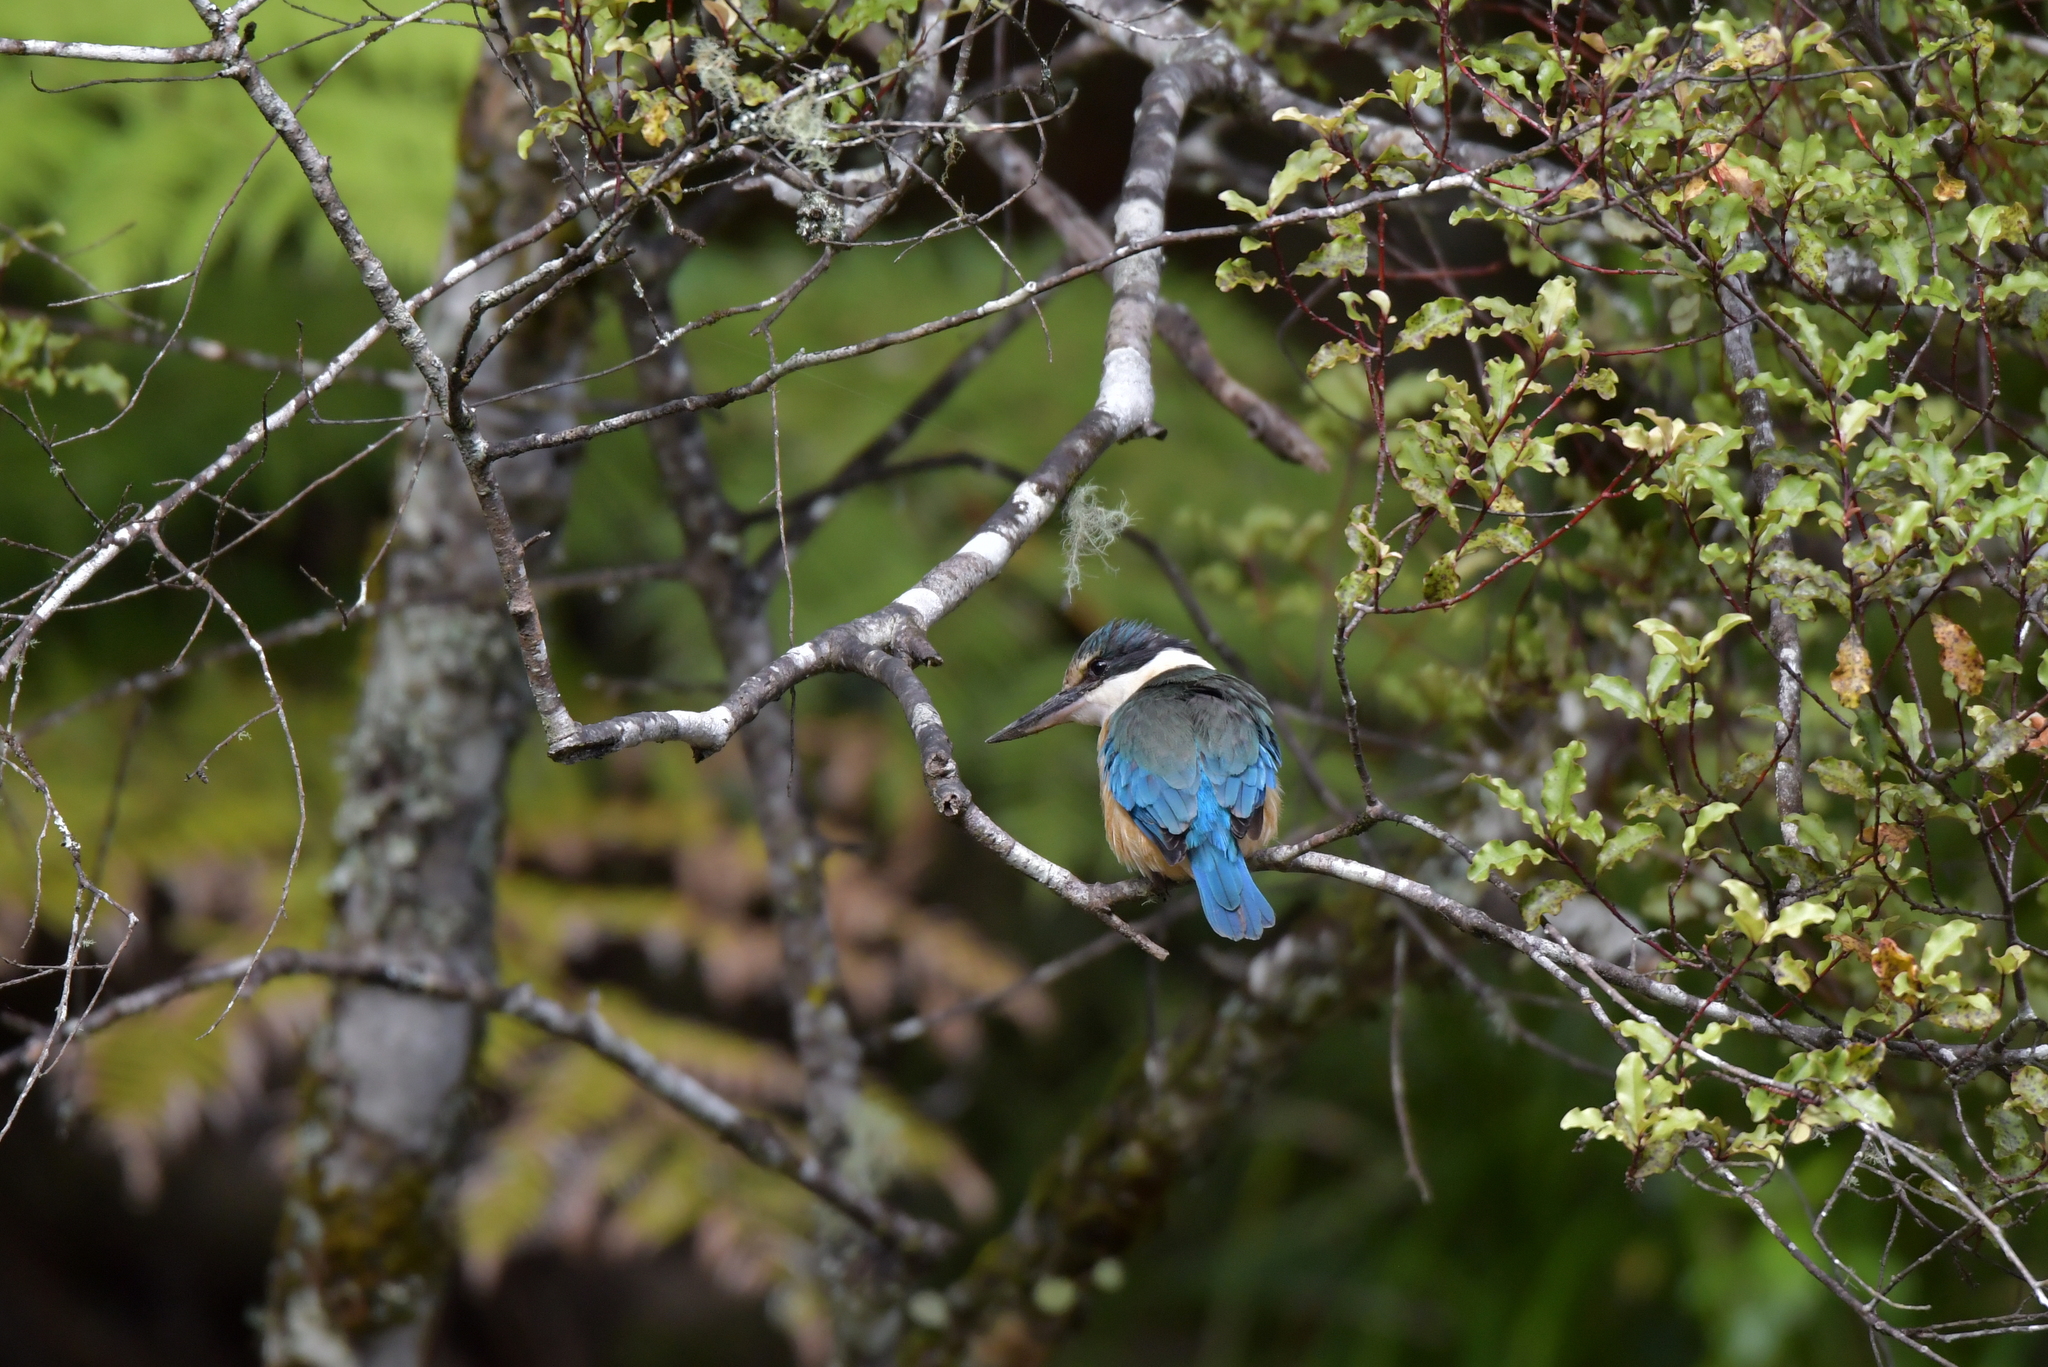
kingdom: Animalia
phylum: Chordata
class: Aves
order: Coraciiformes
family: Alcedinidae
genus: Todiramphus
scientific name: Todiramphus sanctus
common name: Sacred kingfisher
